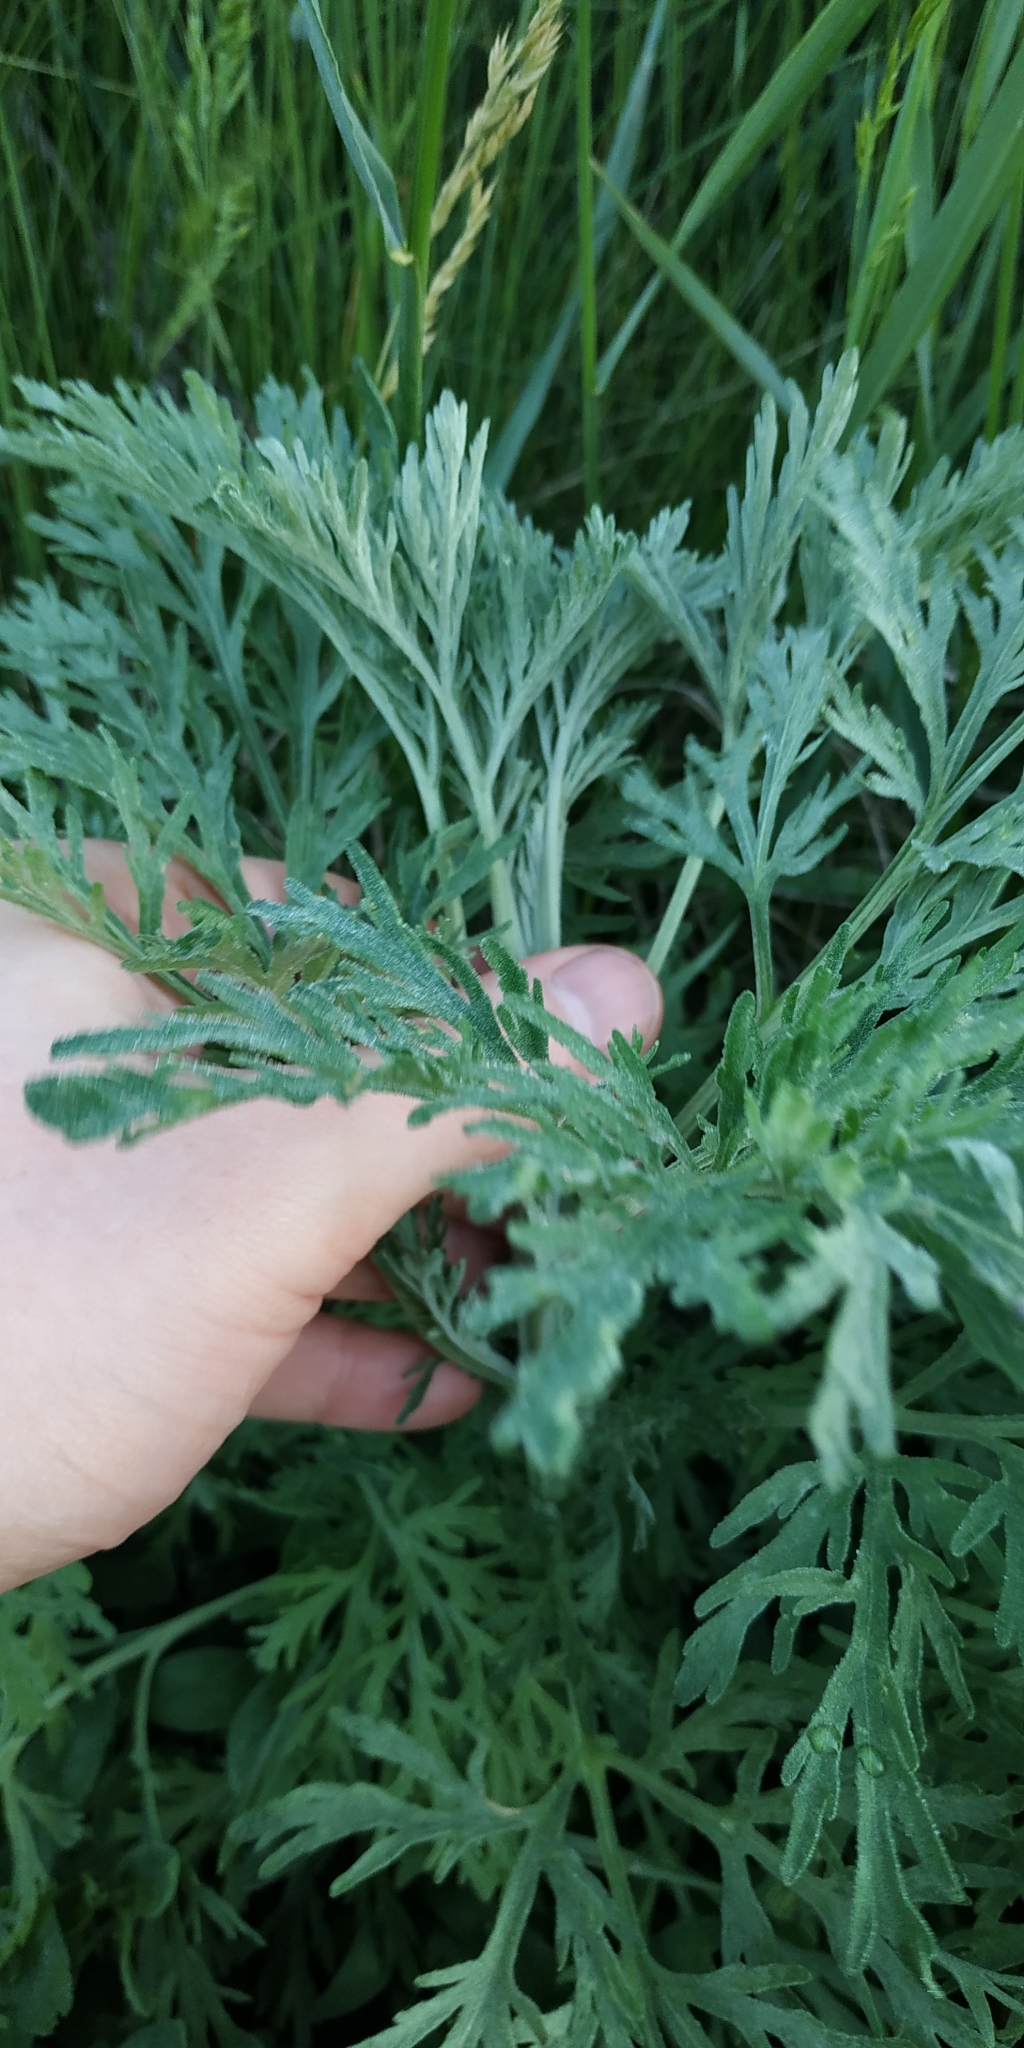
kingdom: Plantae
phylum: Tracheophyta
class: Magnoliopsida
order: Asterales
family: Asteraceae
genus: Artemisia
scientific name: Artemisia sieversiana
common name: Sieversian wormwood
